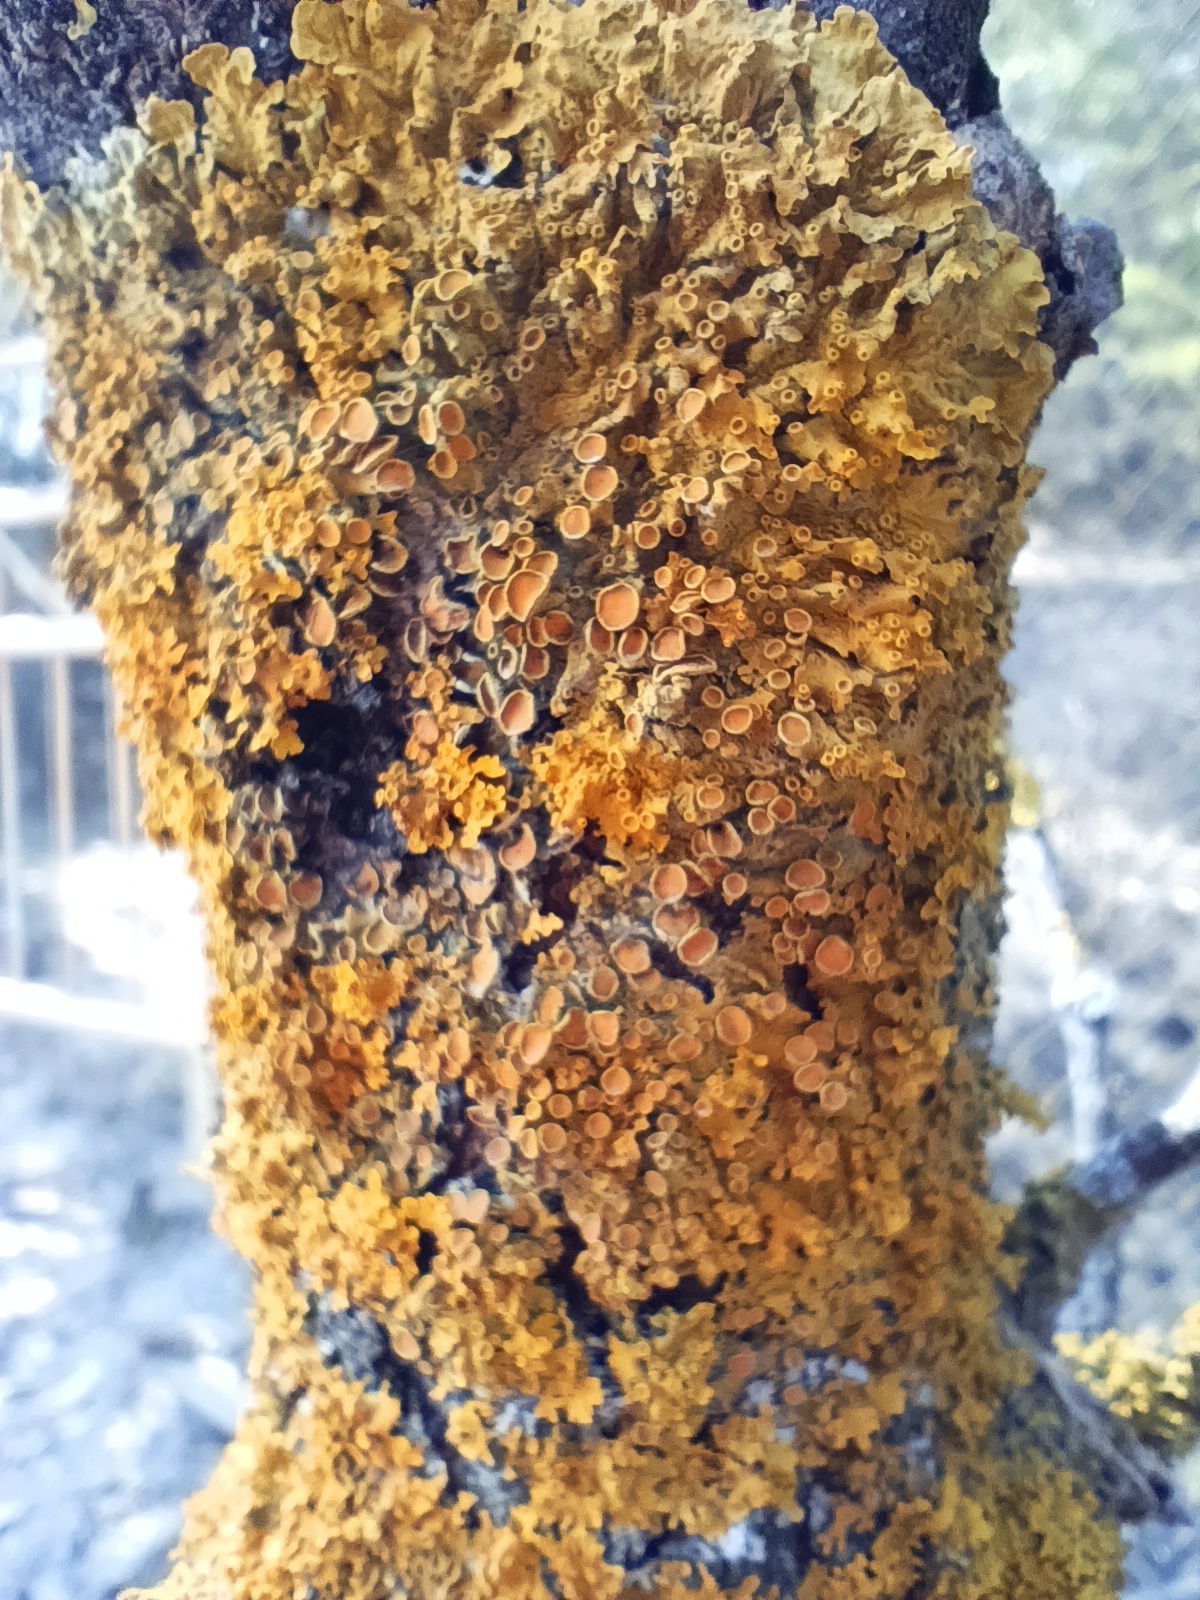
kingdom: Fungi
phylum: Ascomycota
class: Lecanoromycetes
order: Teloschistales
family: Teloschistaceae
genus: Xanthoria
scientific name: Xanthoria parietina
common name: Common orange lichen
